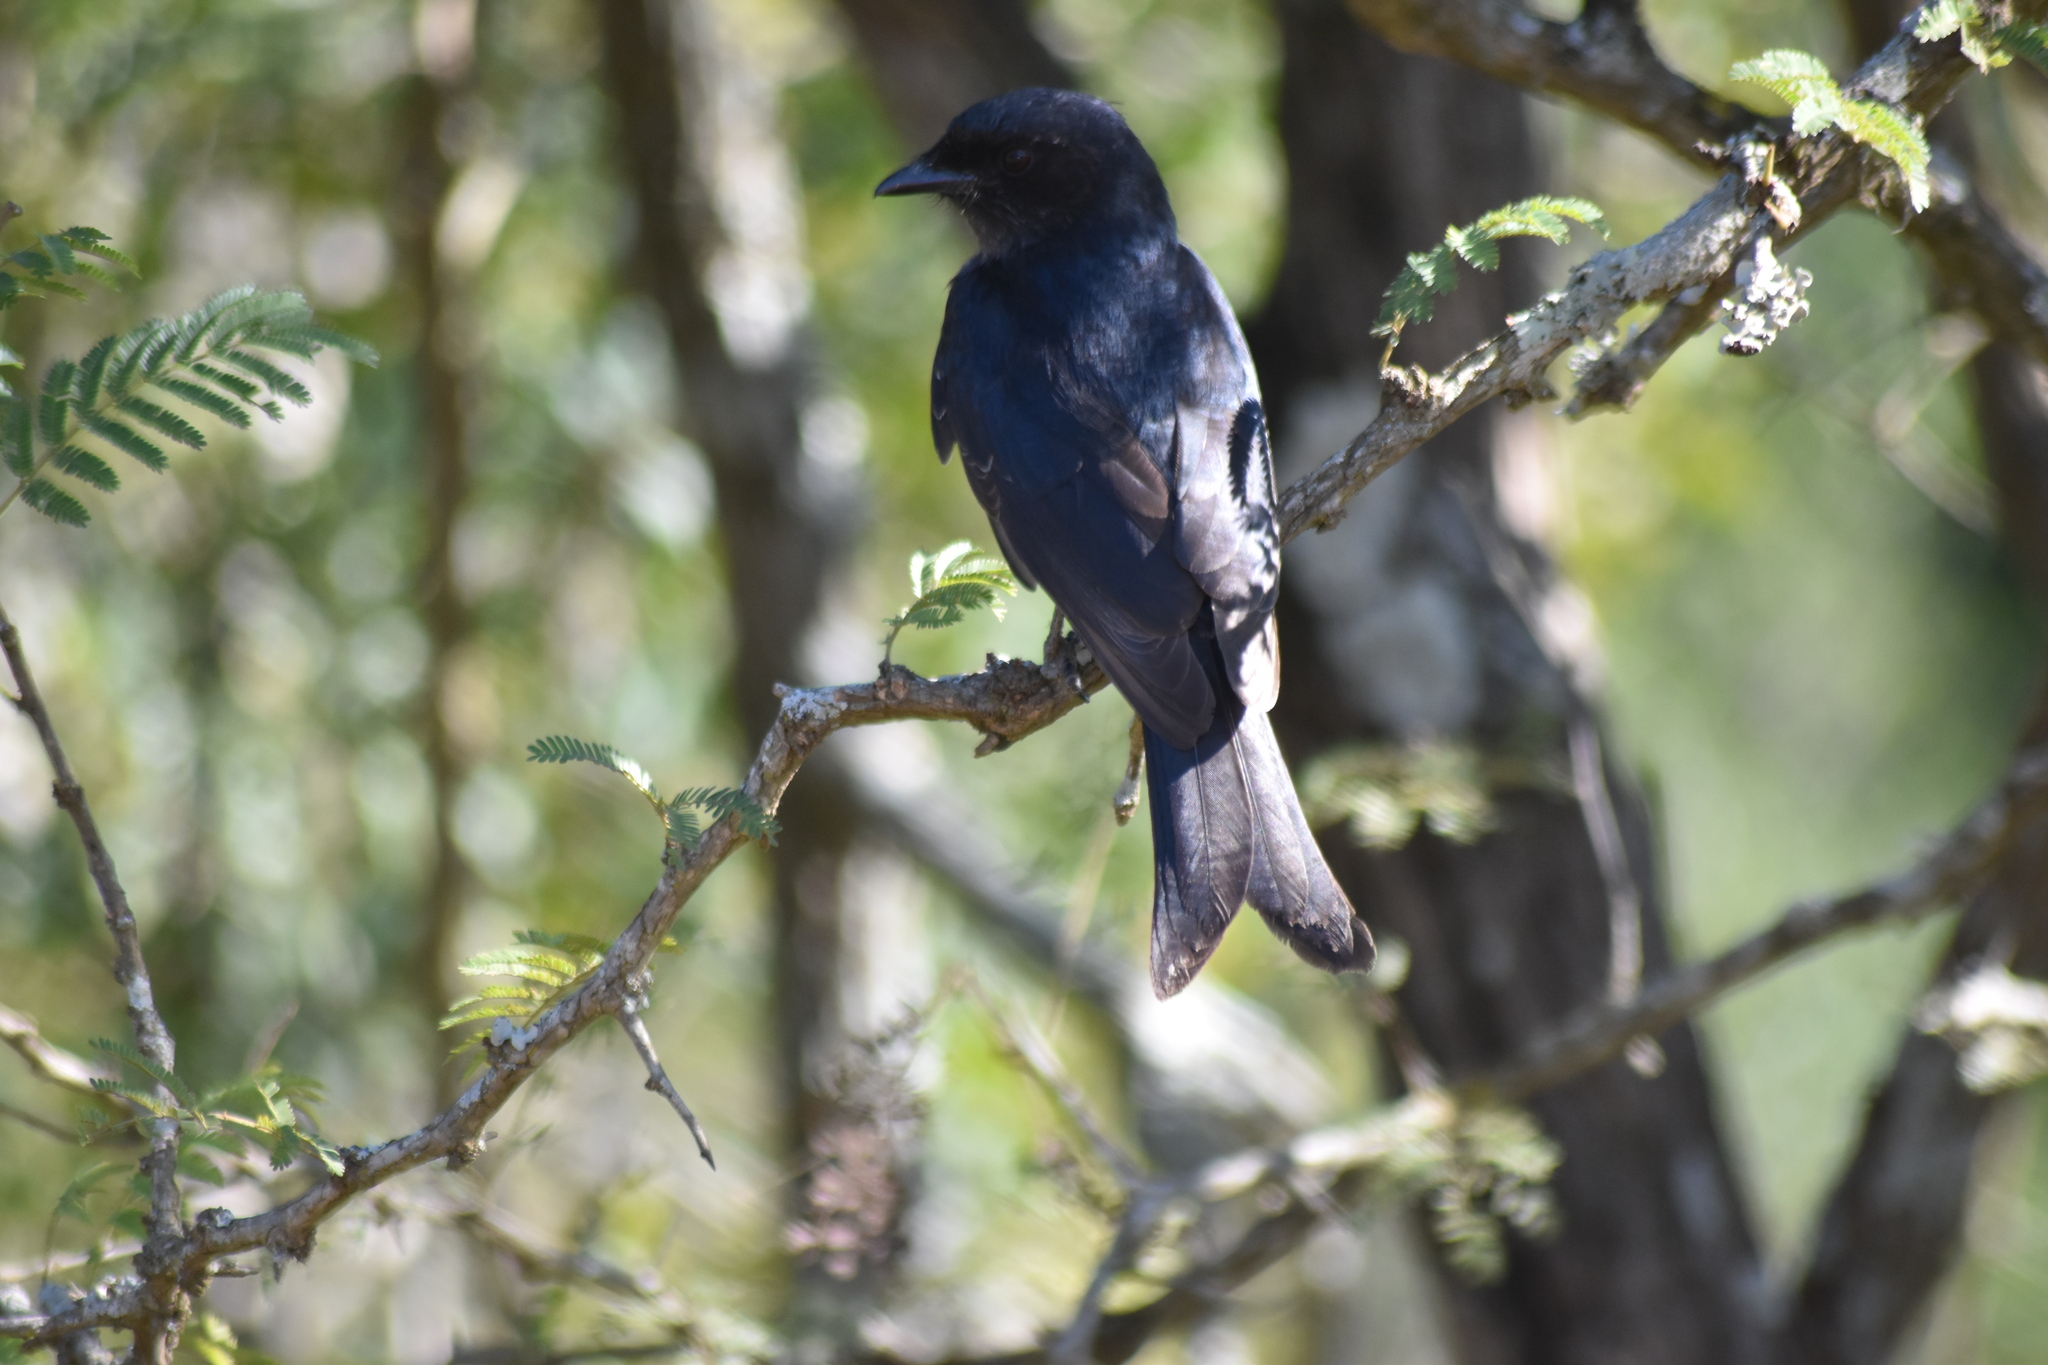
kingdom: Animalia
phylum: Chordata
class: Aves
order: Passeriformes
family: Dicruridae
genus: Dicrurus
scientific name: Dicrurus adsimilis
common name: Fork-tailed drongo
